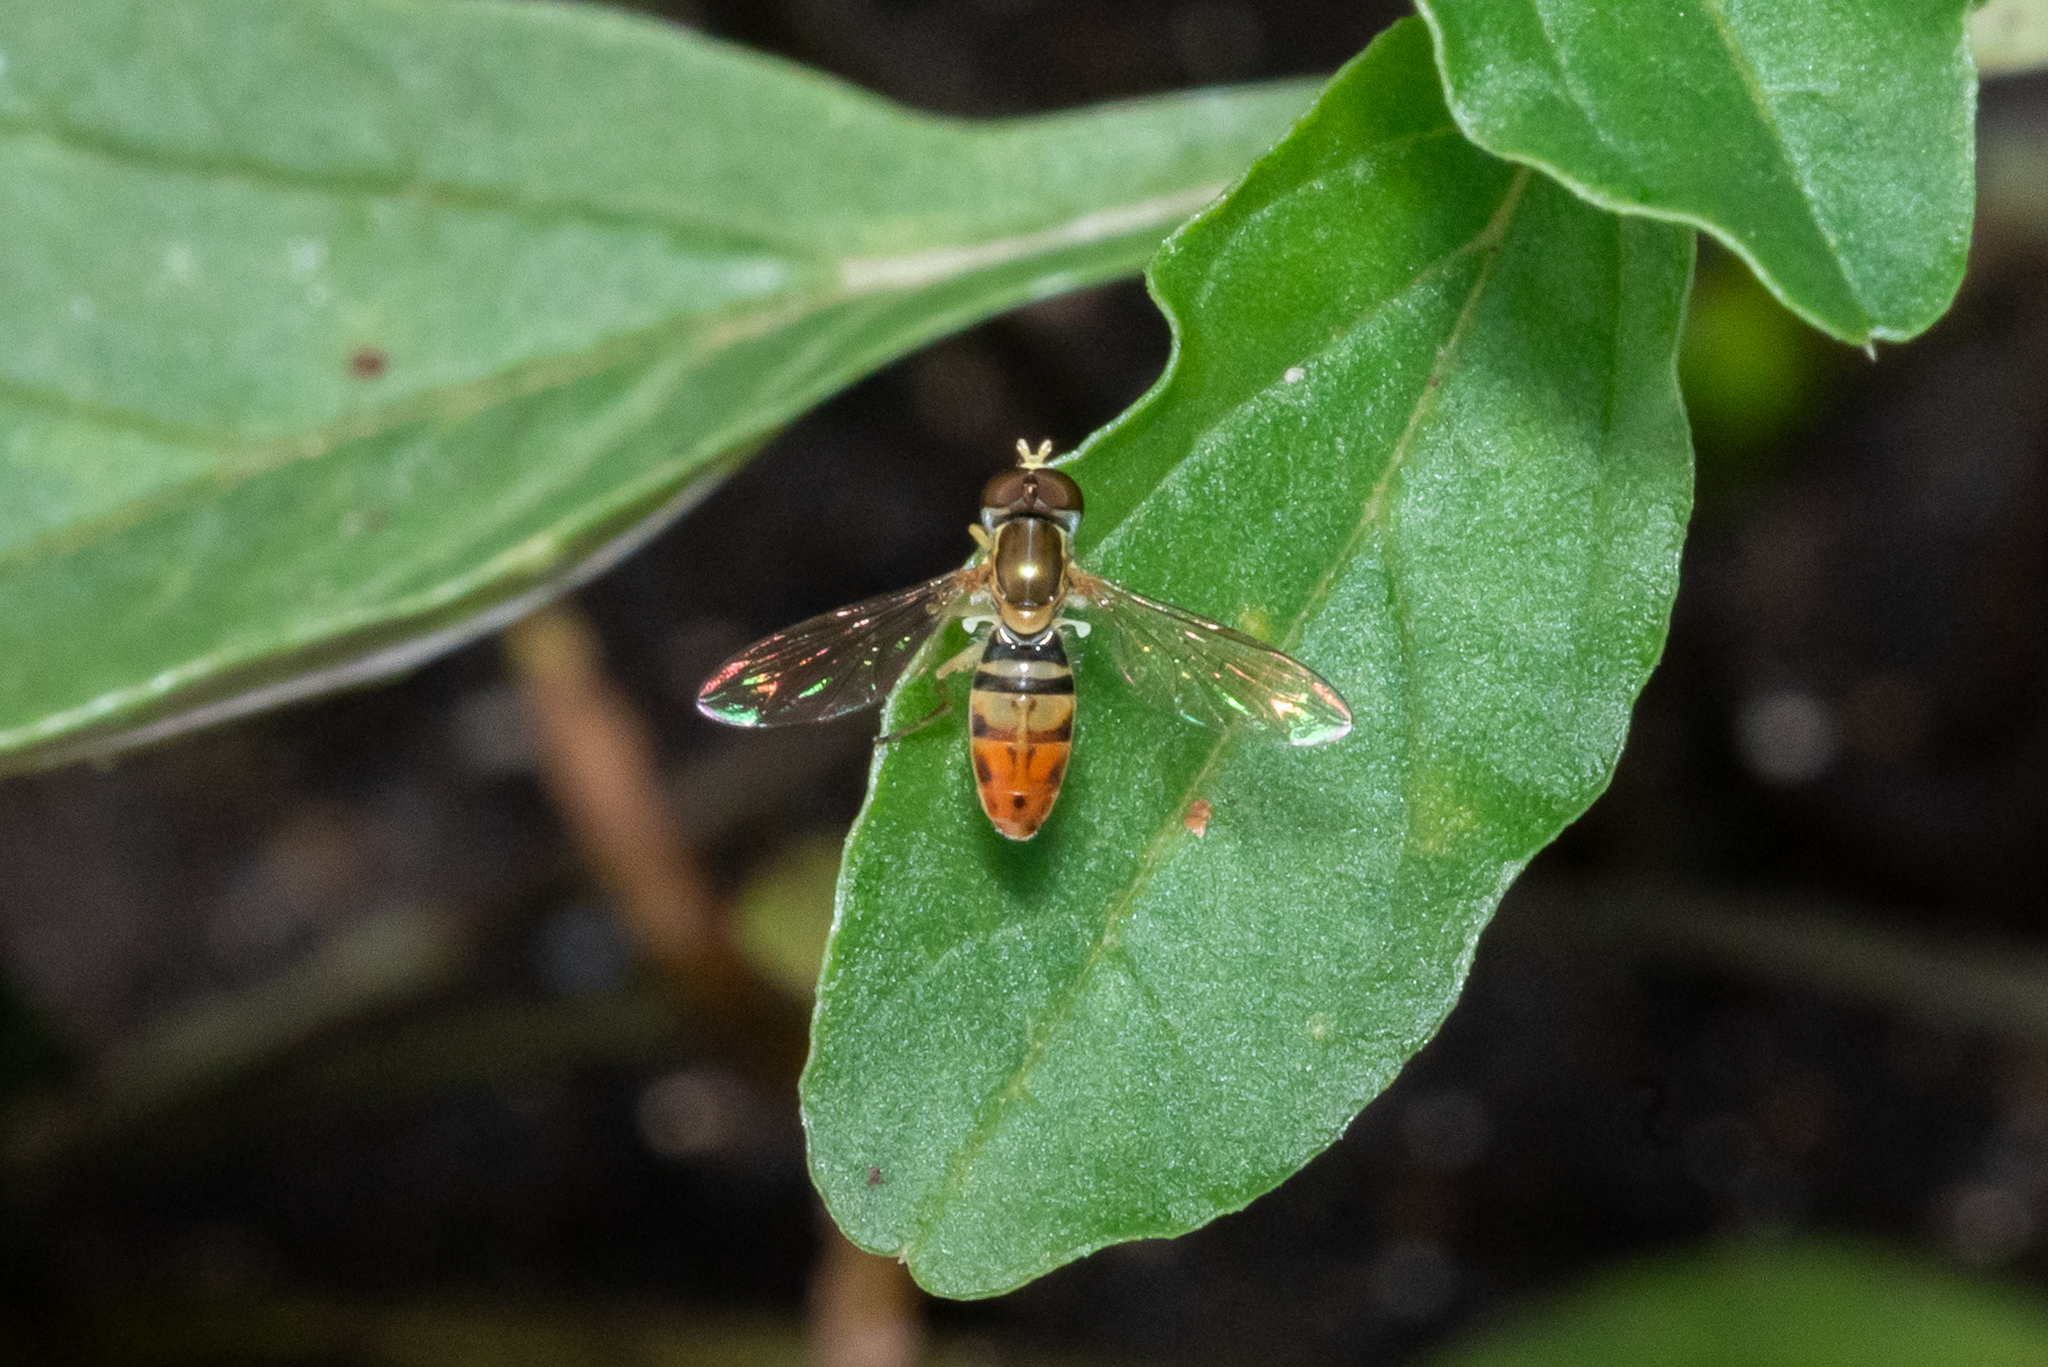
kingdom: Animalia
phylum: Arthropoda
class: Insecta
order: Diptera
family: Syrphidae
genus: Toxomerus
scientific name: Toxomerus marginatus
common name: Syrphid fly
